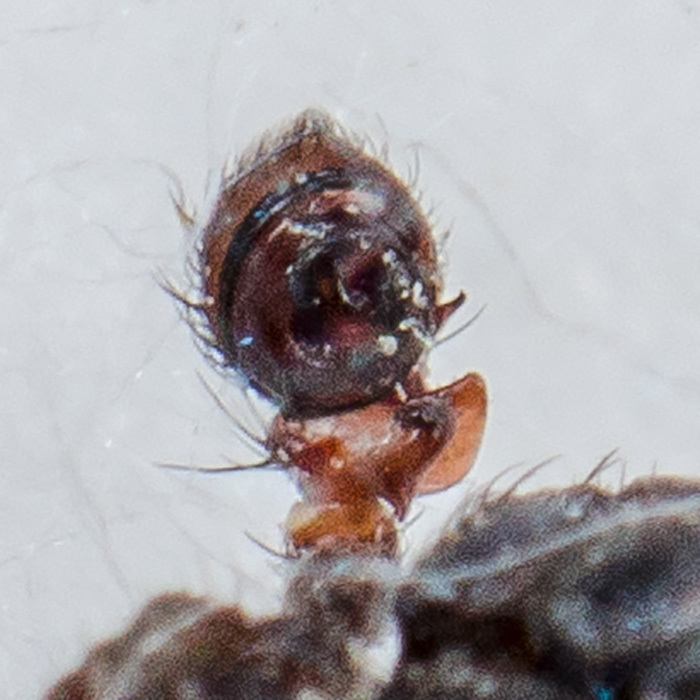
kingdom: Animalia
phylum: Arthropoda
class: Arachnida
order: Araneae
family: Thomisidae
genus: Bassaniodes
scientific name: Bassaniodes tristrami
